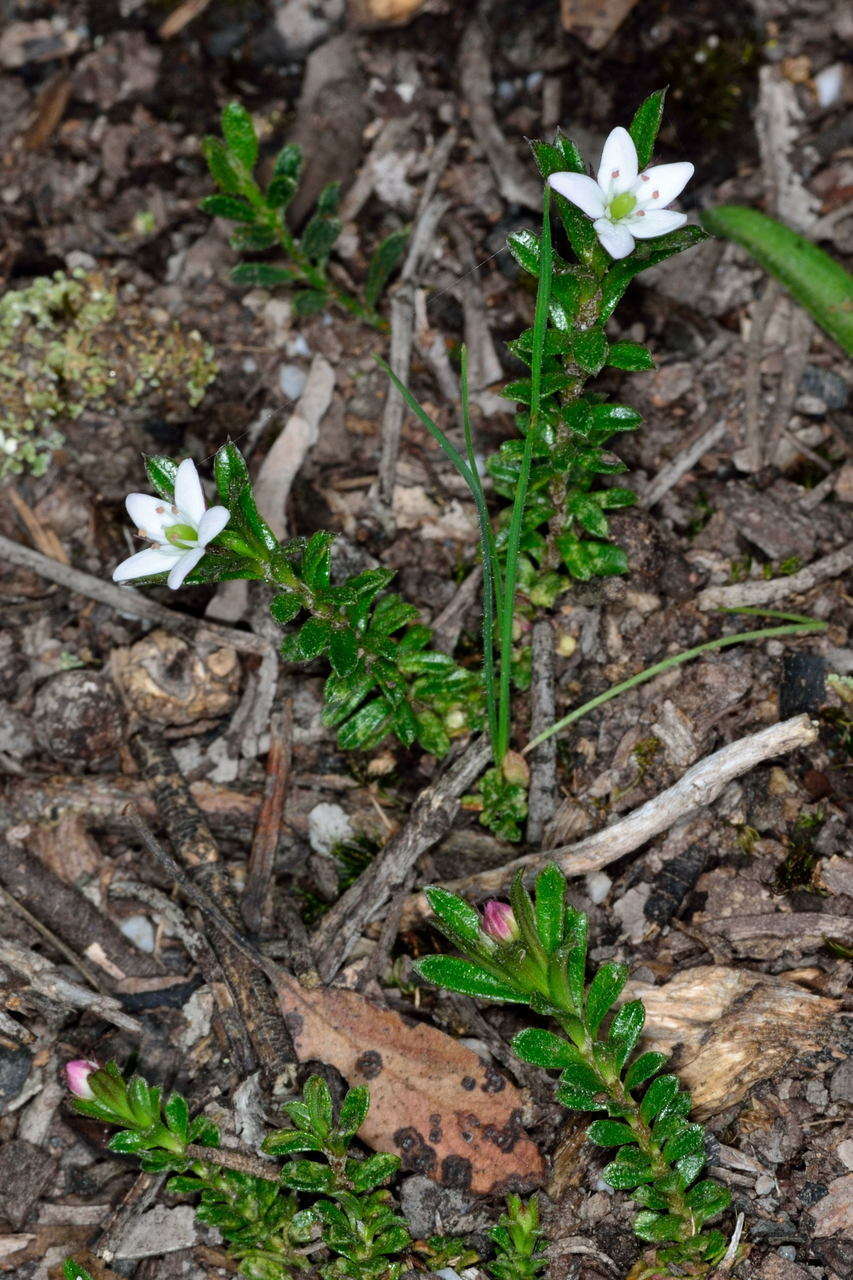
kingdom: Plantae
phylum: Tracheophyta
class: Magnoliopsida
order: Apiales
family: Pittosporaceae
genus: Rhytidosporum
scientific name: Rhytidosporum procumbens
